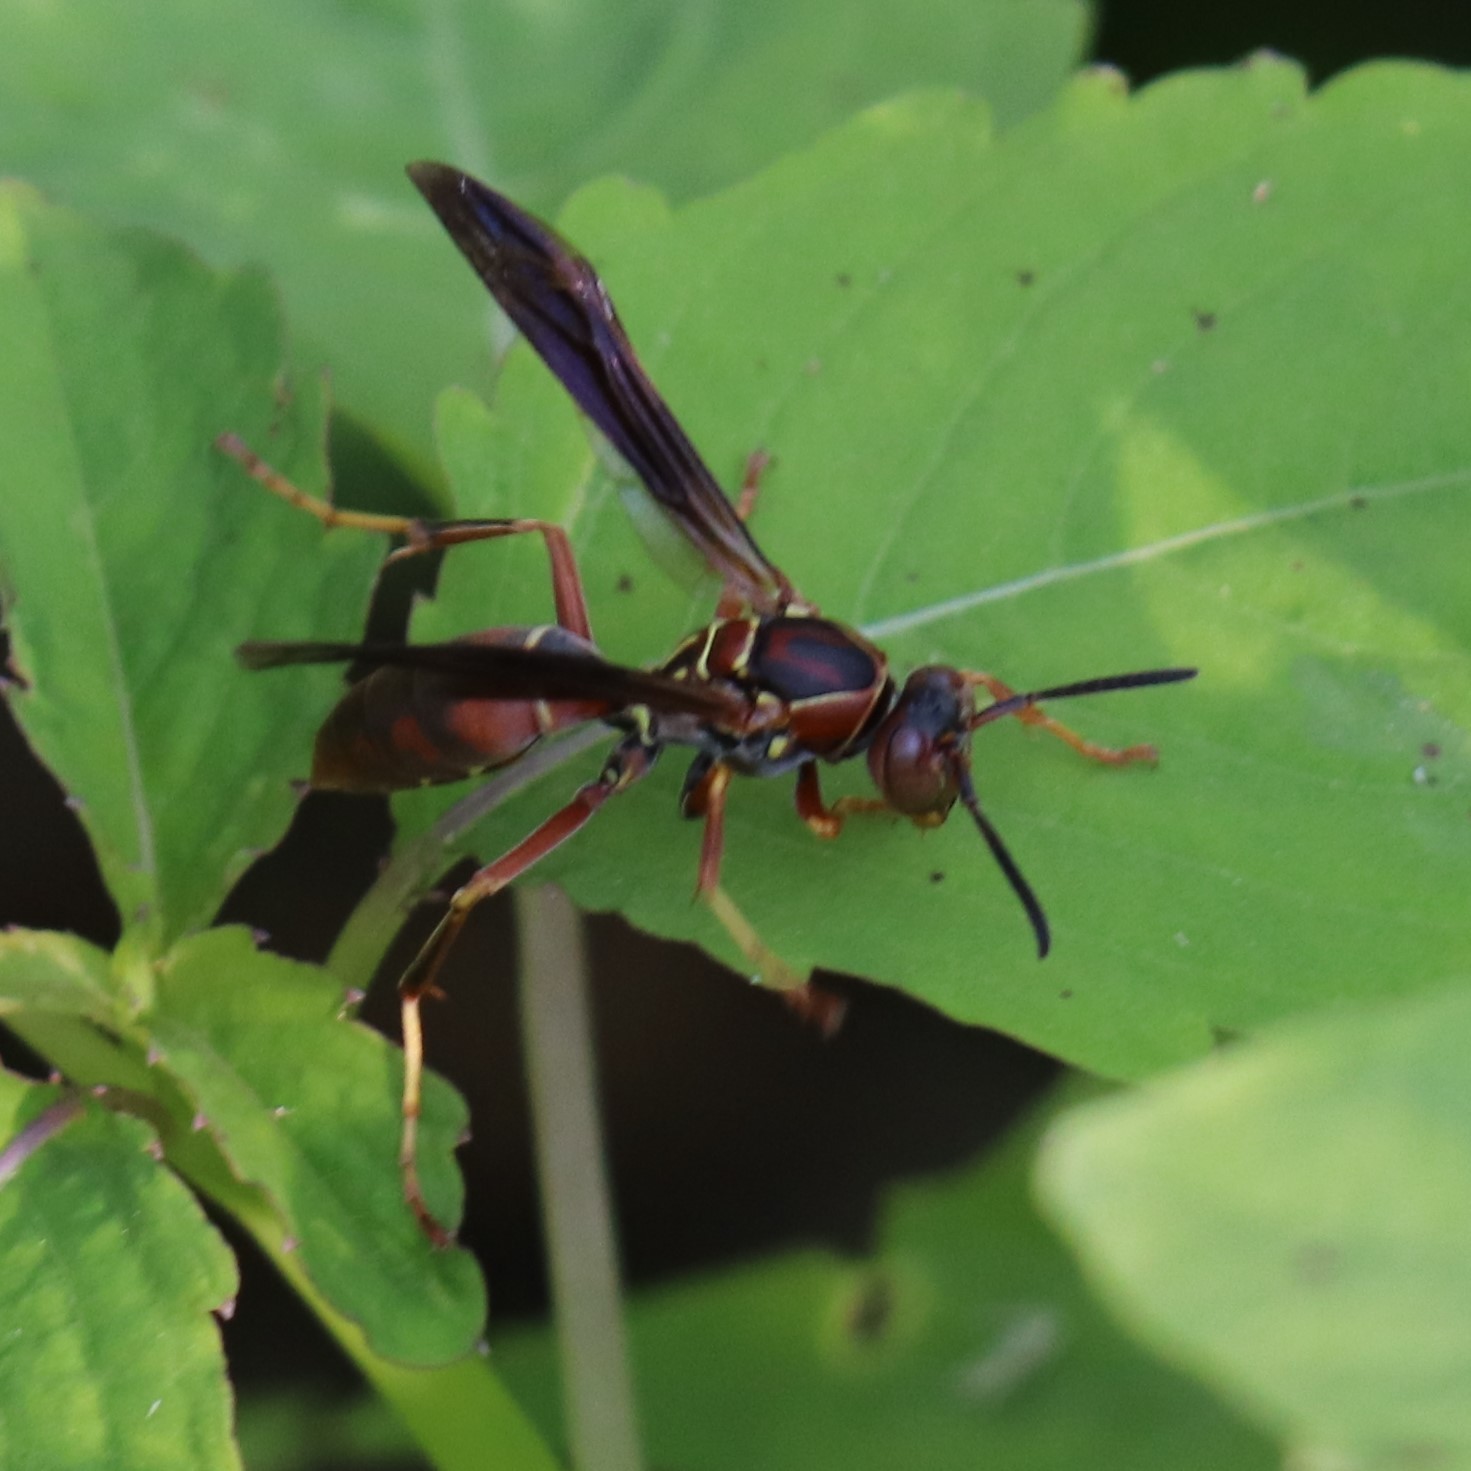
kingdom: Animalia
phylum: Arthropoda
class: Insecta
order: Hymenoptera
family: Eumenidae
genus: Polistes
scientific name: Polistes fuscatus
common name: Dark paper wasp
